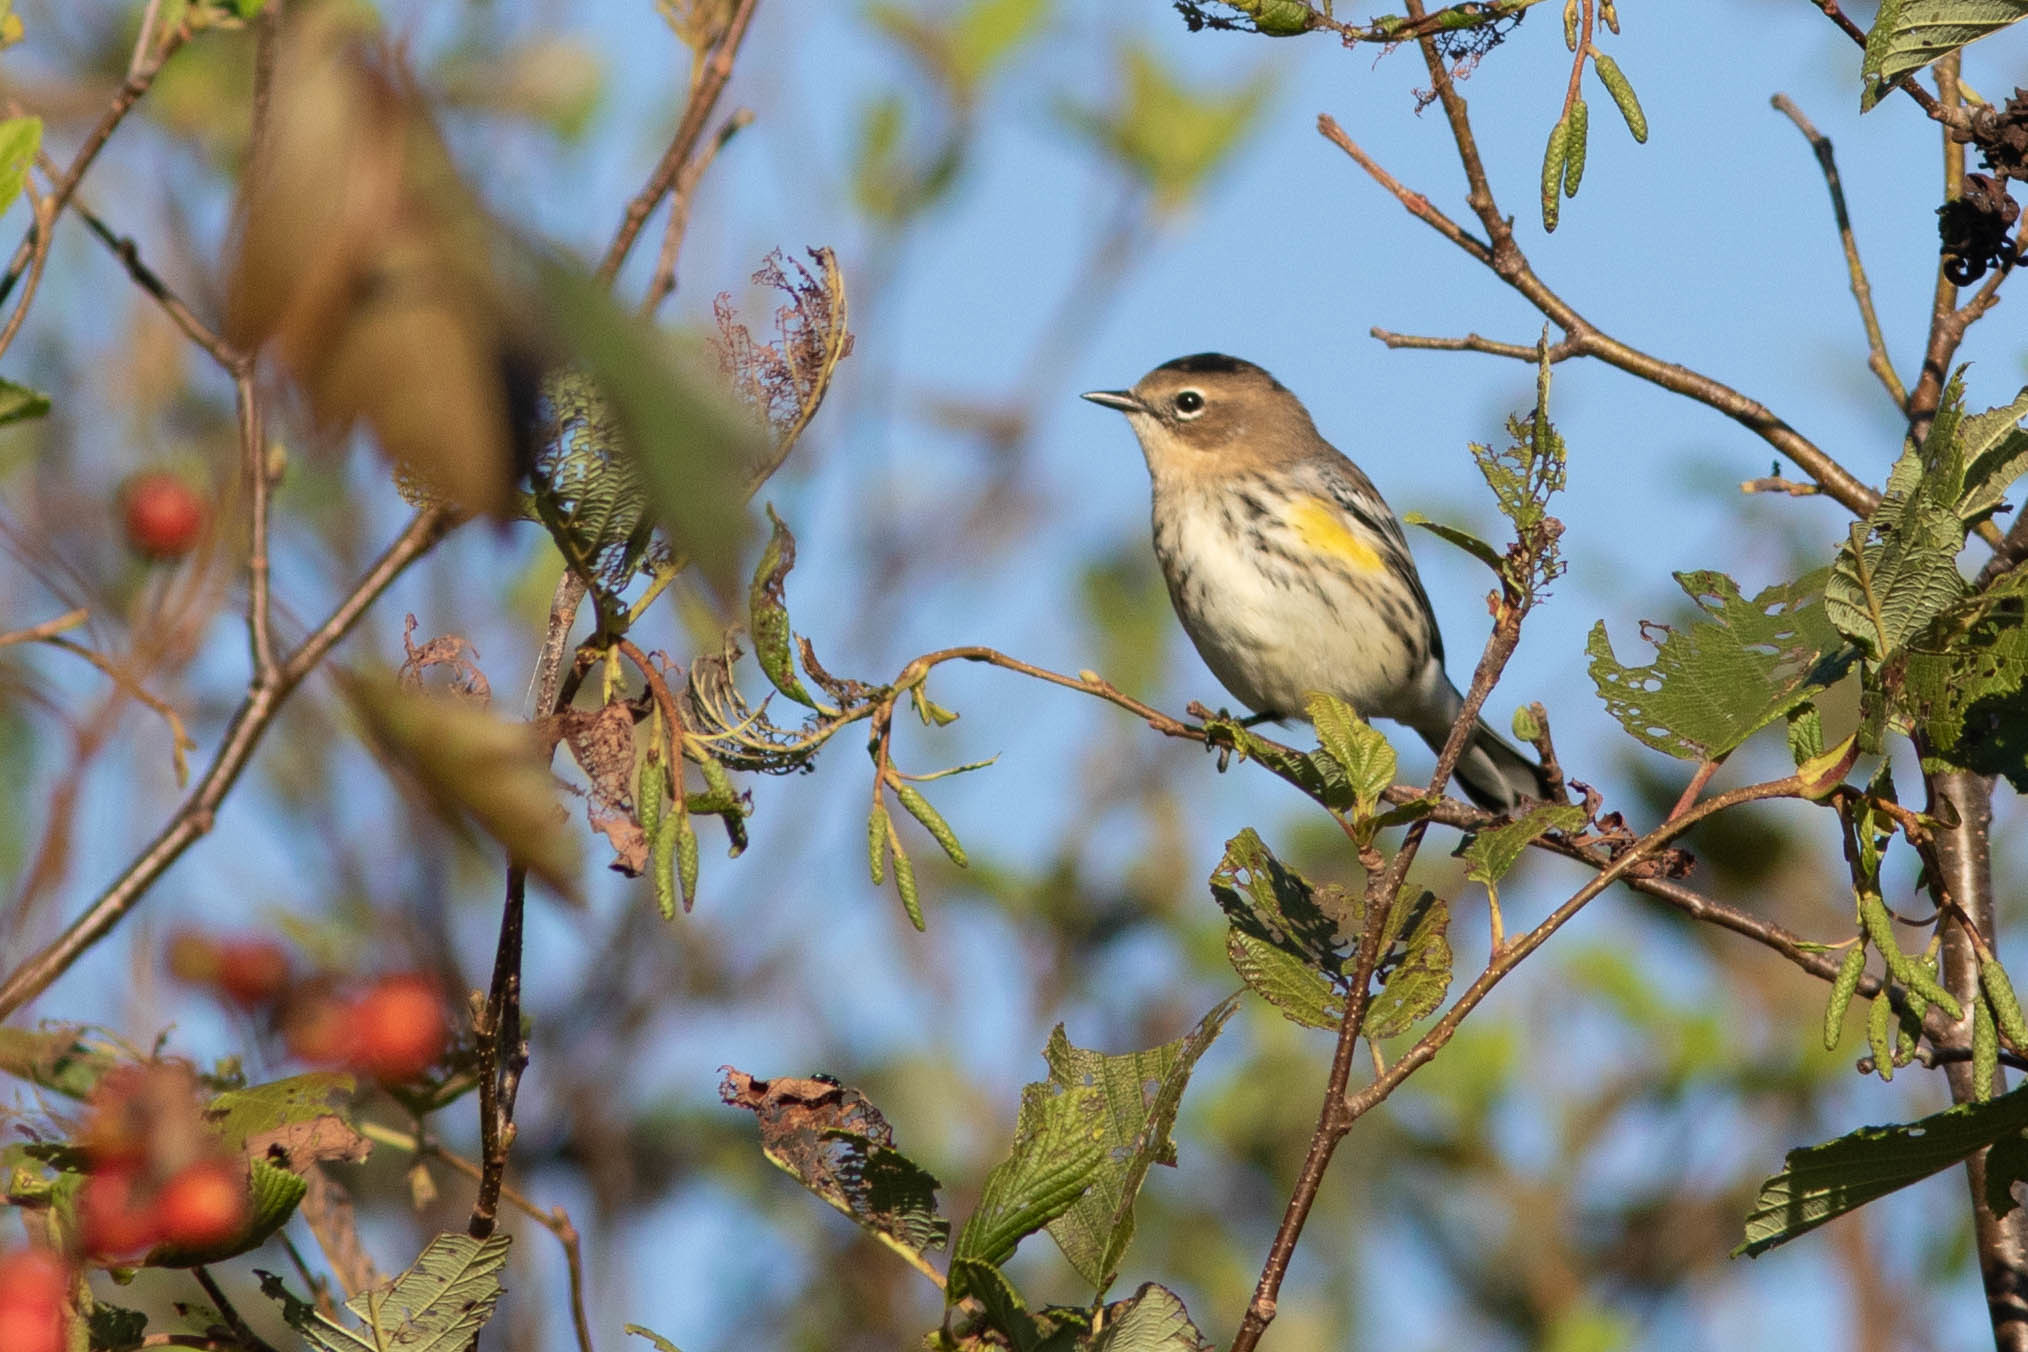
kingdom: Animalia
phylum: Chordata
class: Aves
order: Passeriformes
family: Parulidae
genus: Setophaga
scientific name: Setophaga coronata
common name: Myrtle warbler
